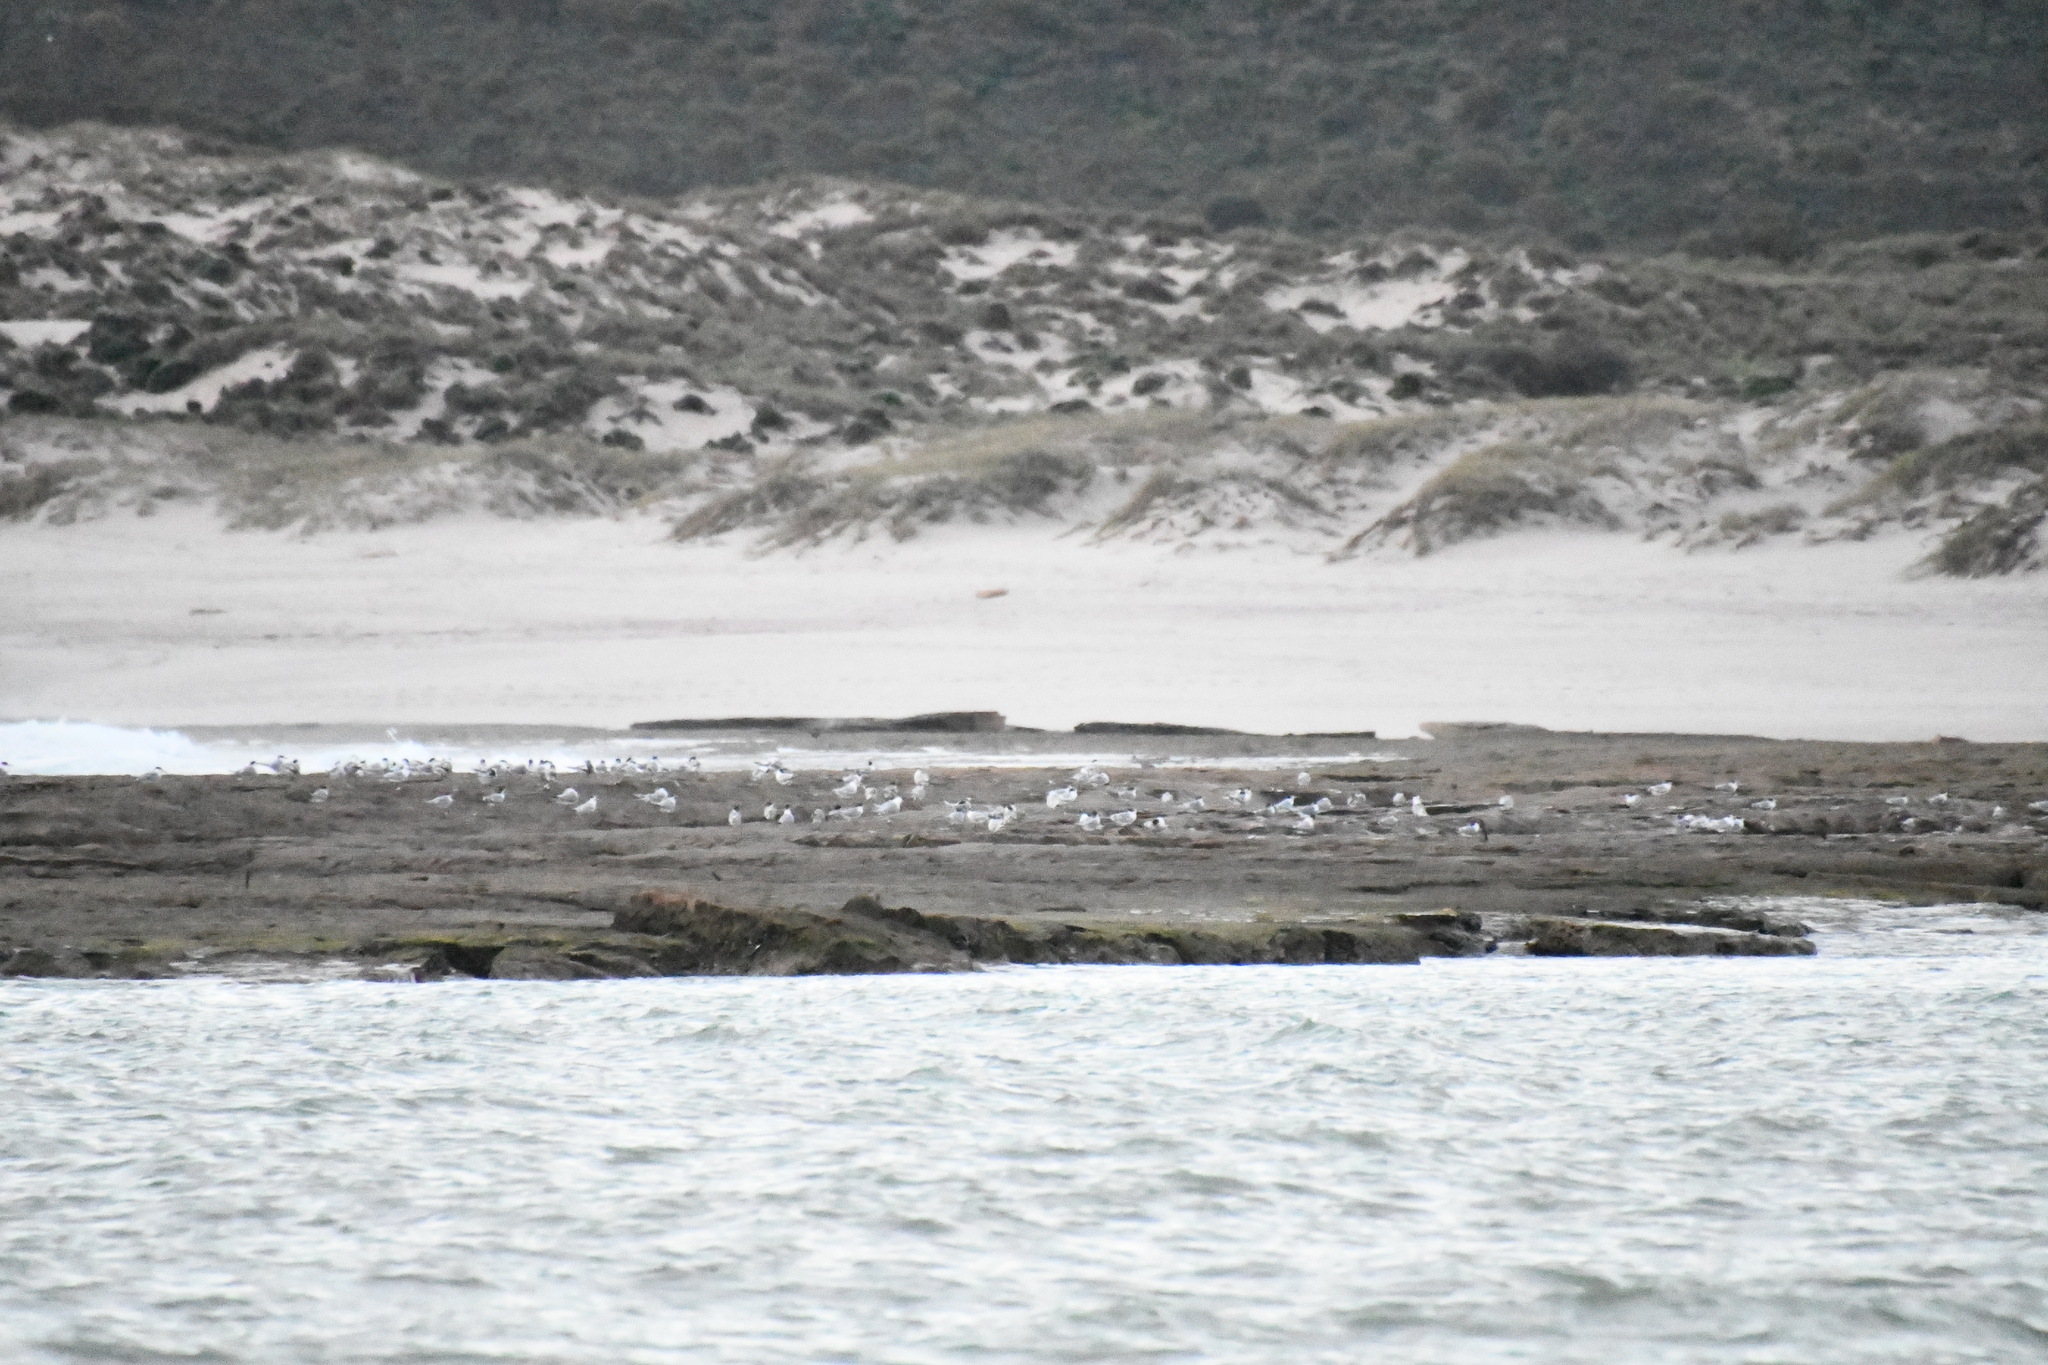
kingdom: Animalia
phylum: Chordata
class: Aves
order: Charadriiformes
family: Laridae
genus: Thalasseus
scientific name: Thalasseus bergii
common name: Greater crested tern
